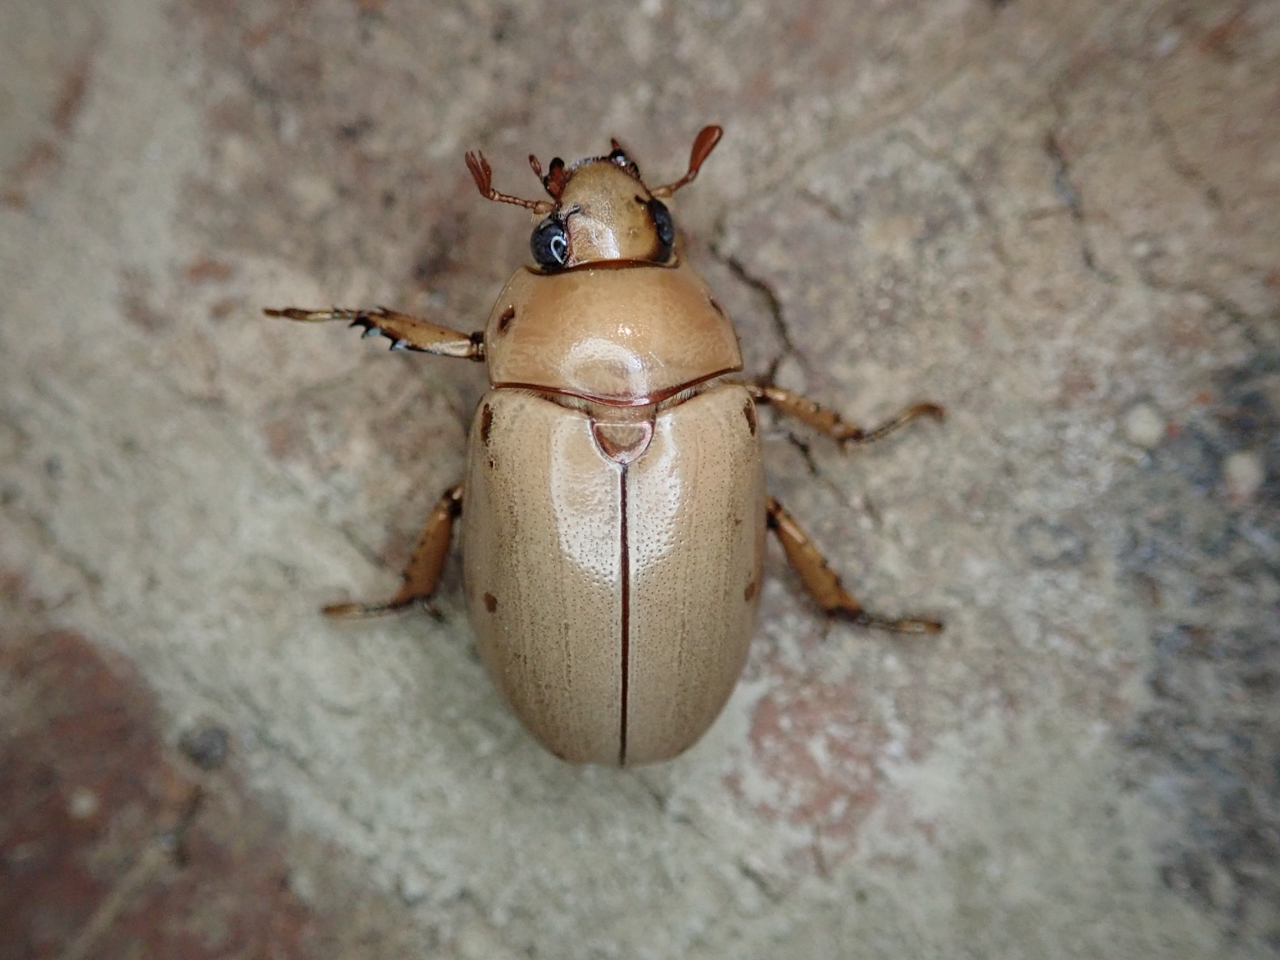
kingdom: Animalia
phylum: Arthropoda
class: Insecta
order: Coleoptera
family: Scarabaeidae
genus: Pelidnota
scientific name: Pelidnota punctata
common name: Grapevine beetle
